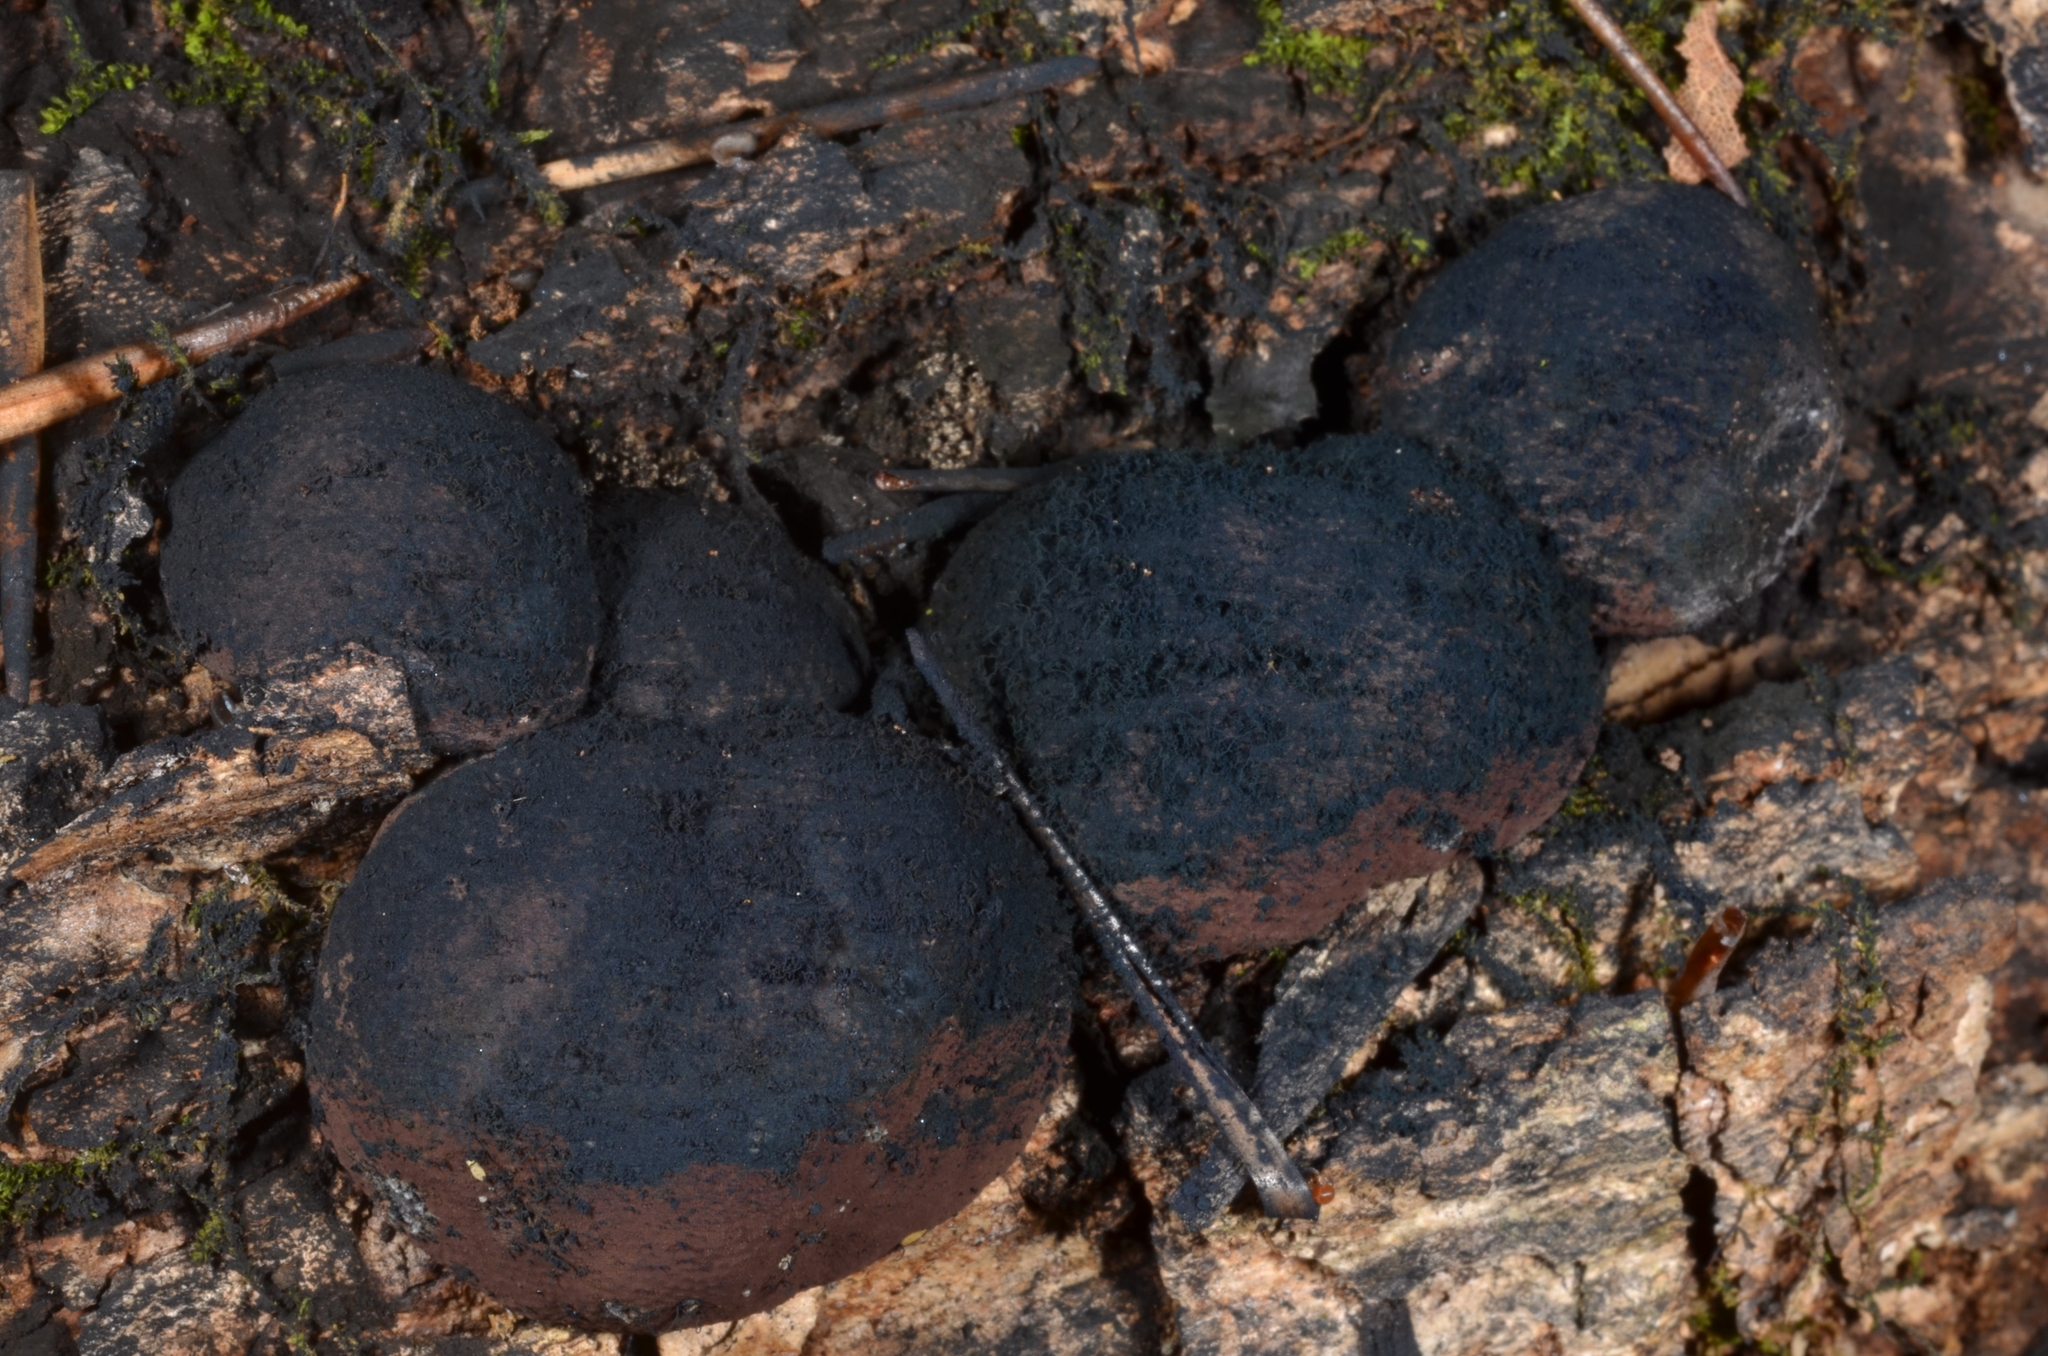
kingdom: Fungi
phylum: Ascomycota
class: Sordariomycetes
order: Xylariales
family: Hypoxylaceae
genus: Daldinia
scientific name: Daldinia childiae
